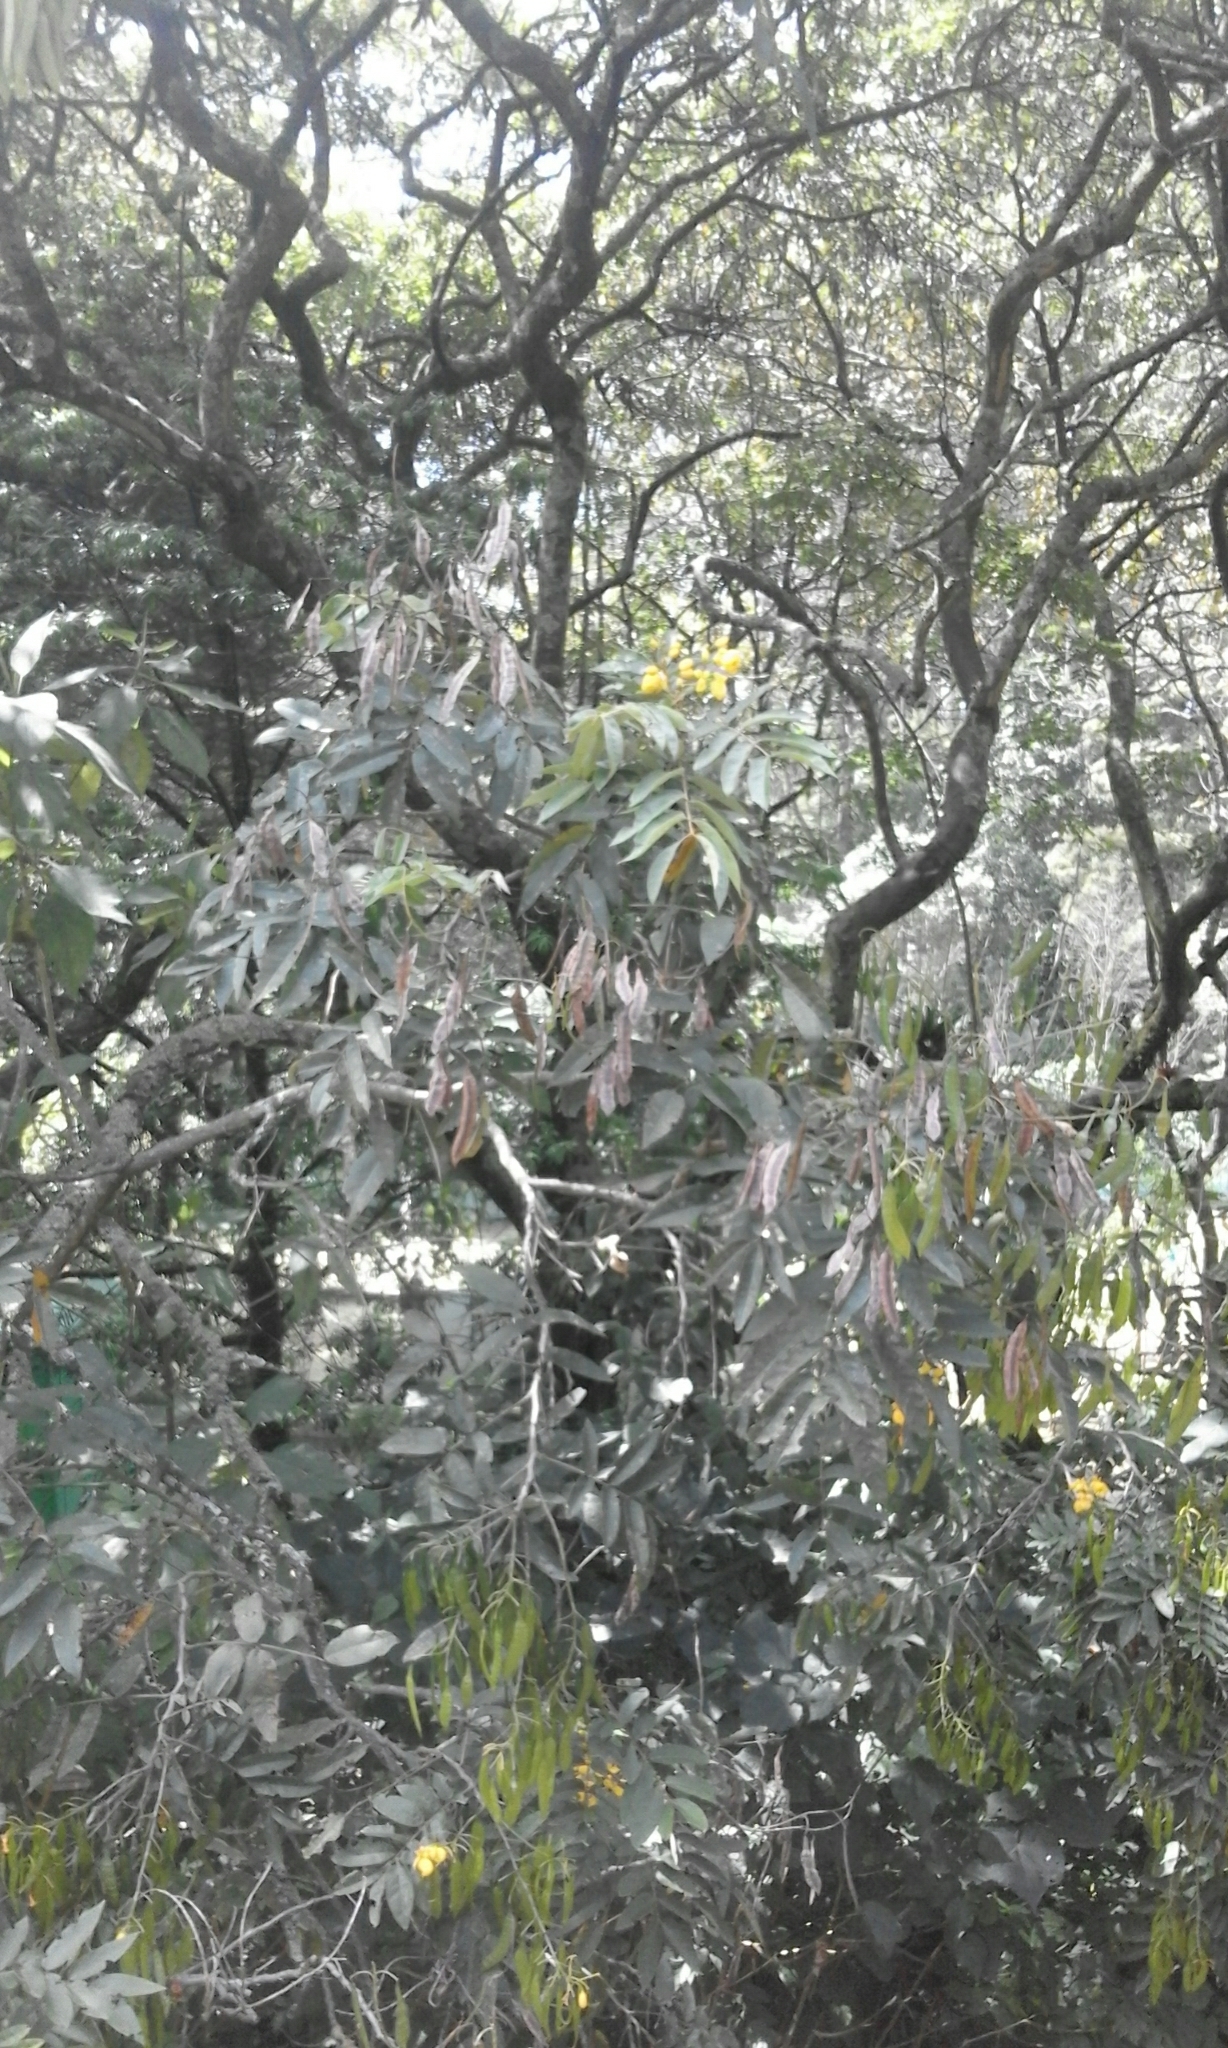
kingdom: Plantae
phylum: Tracheophyta
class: Magnoliopsida
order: Fabales
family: Fabaceae
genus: Senna
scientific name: Senna viarum
